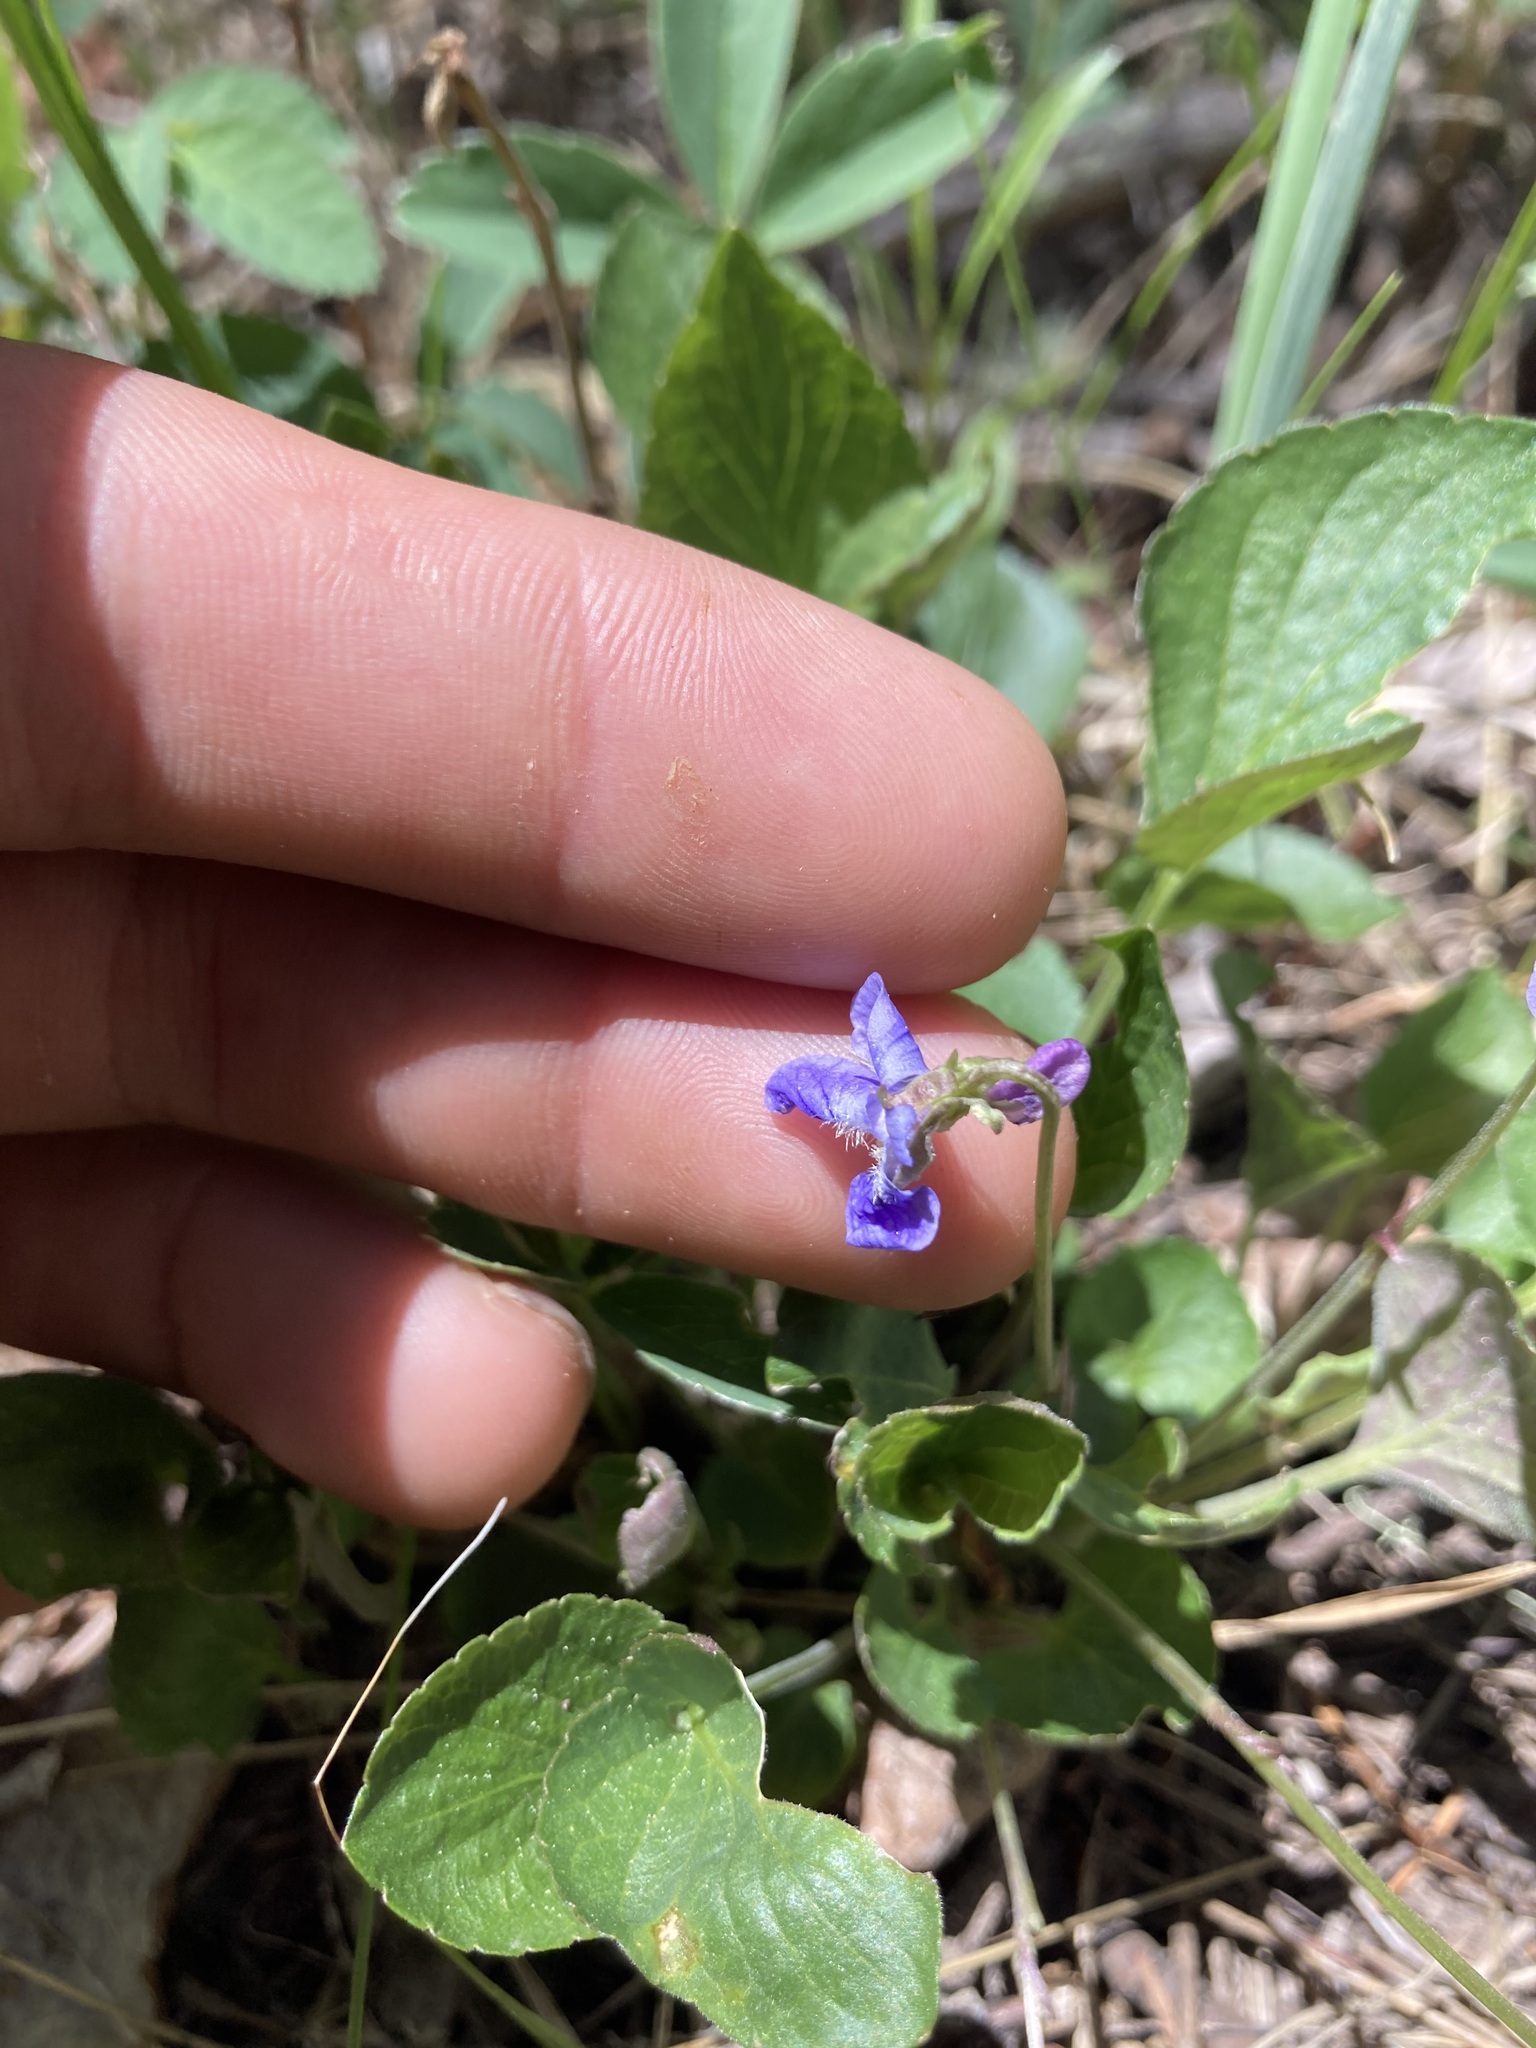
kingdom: Plantae
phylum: Tracheophyta
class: Magnoliopsida
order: Malpighiales
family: Violaceae
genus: Viola
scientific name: Viola adunca
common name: Sand violet
